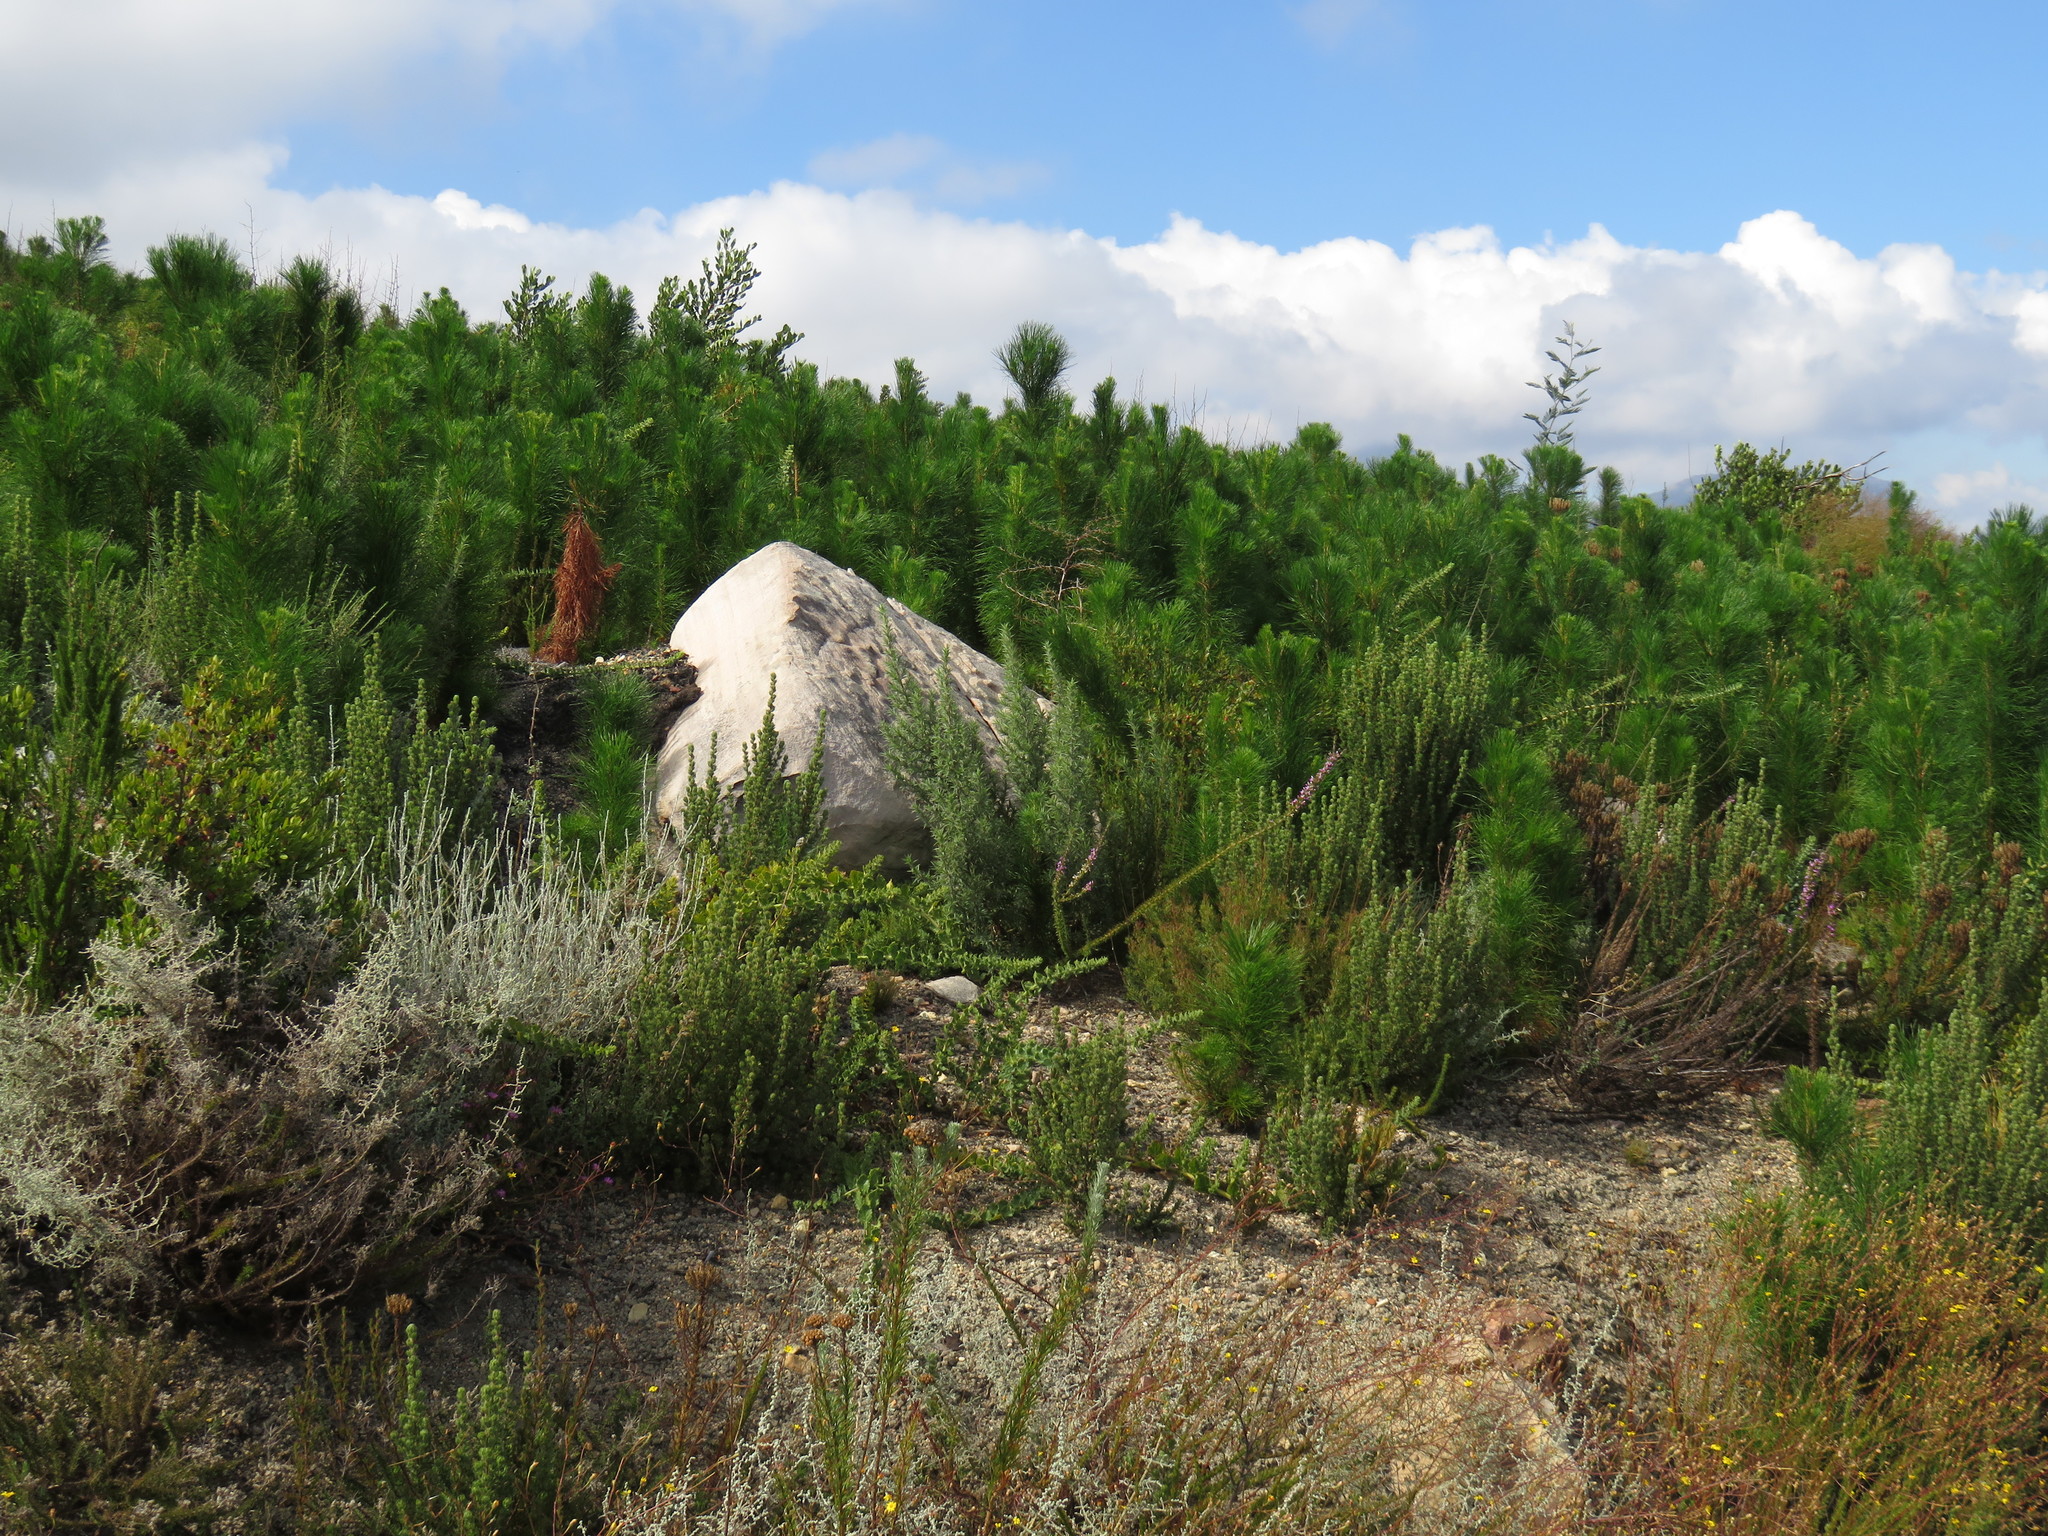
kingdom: Plantae
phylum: Tracheophyta
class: Magnoliopsida
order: Lamiales
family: Scrophulariaceae
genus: Oftia
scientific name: Oftia africana
